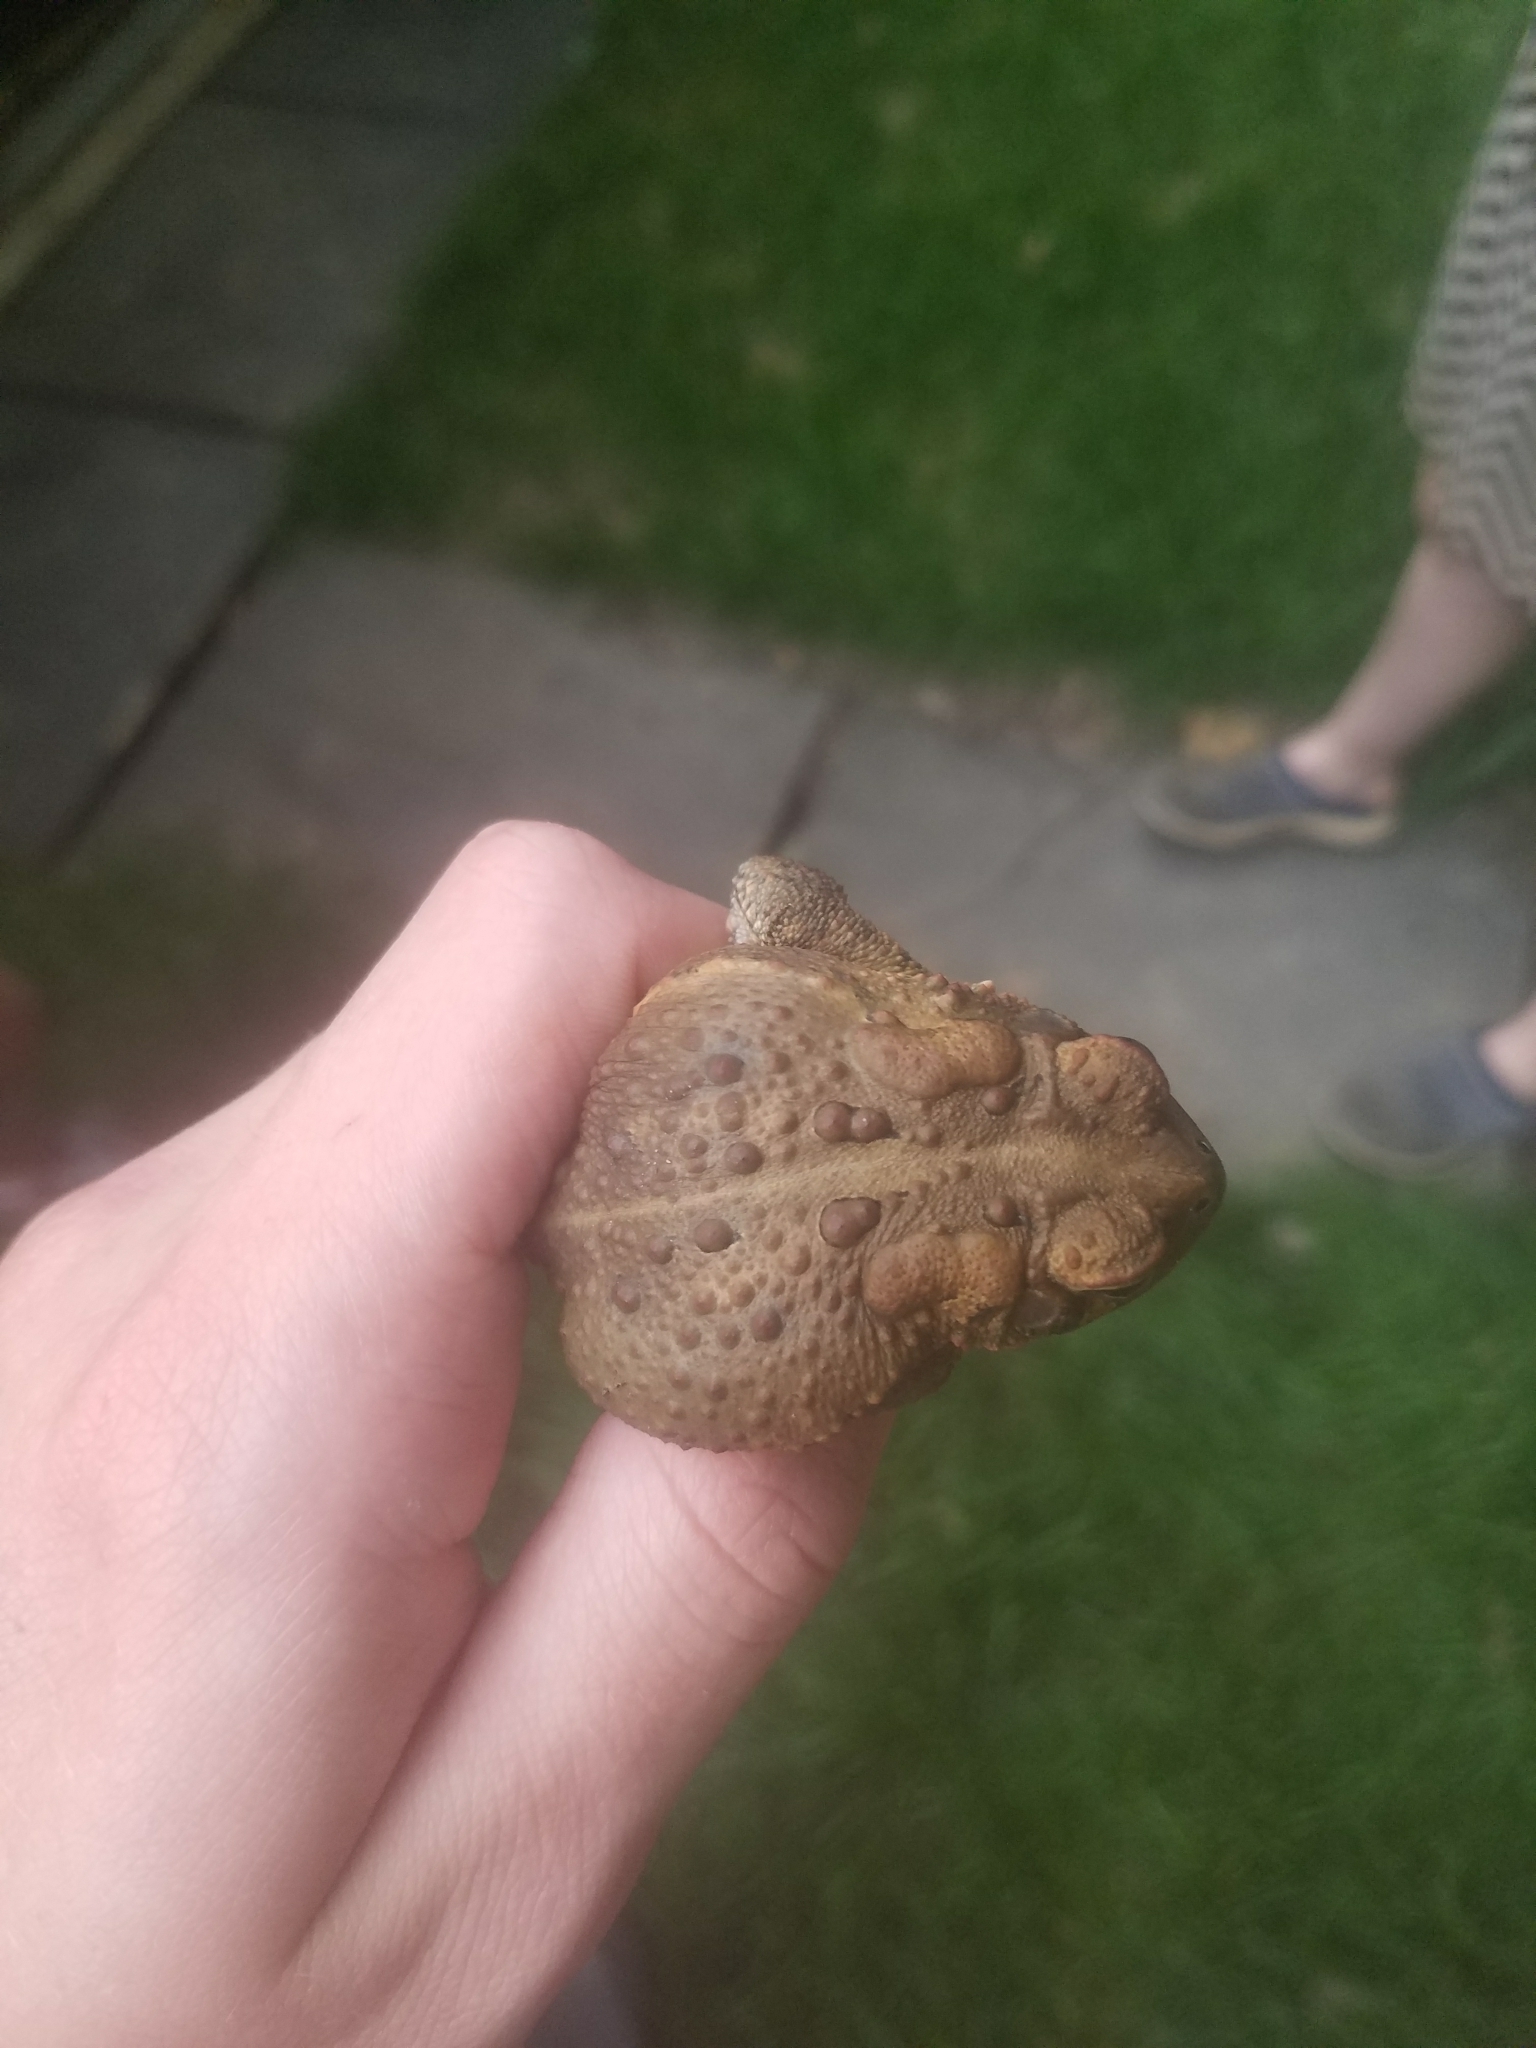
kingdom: Animalia
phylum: Chordata
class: Amphibia
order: Anura
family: Bufonidae
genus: Anaxyrus
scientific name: Anaxyrus americanus
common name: American toad
